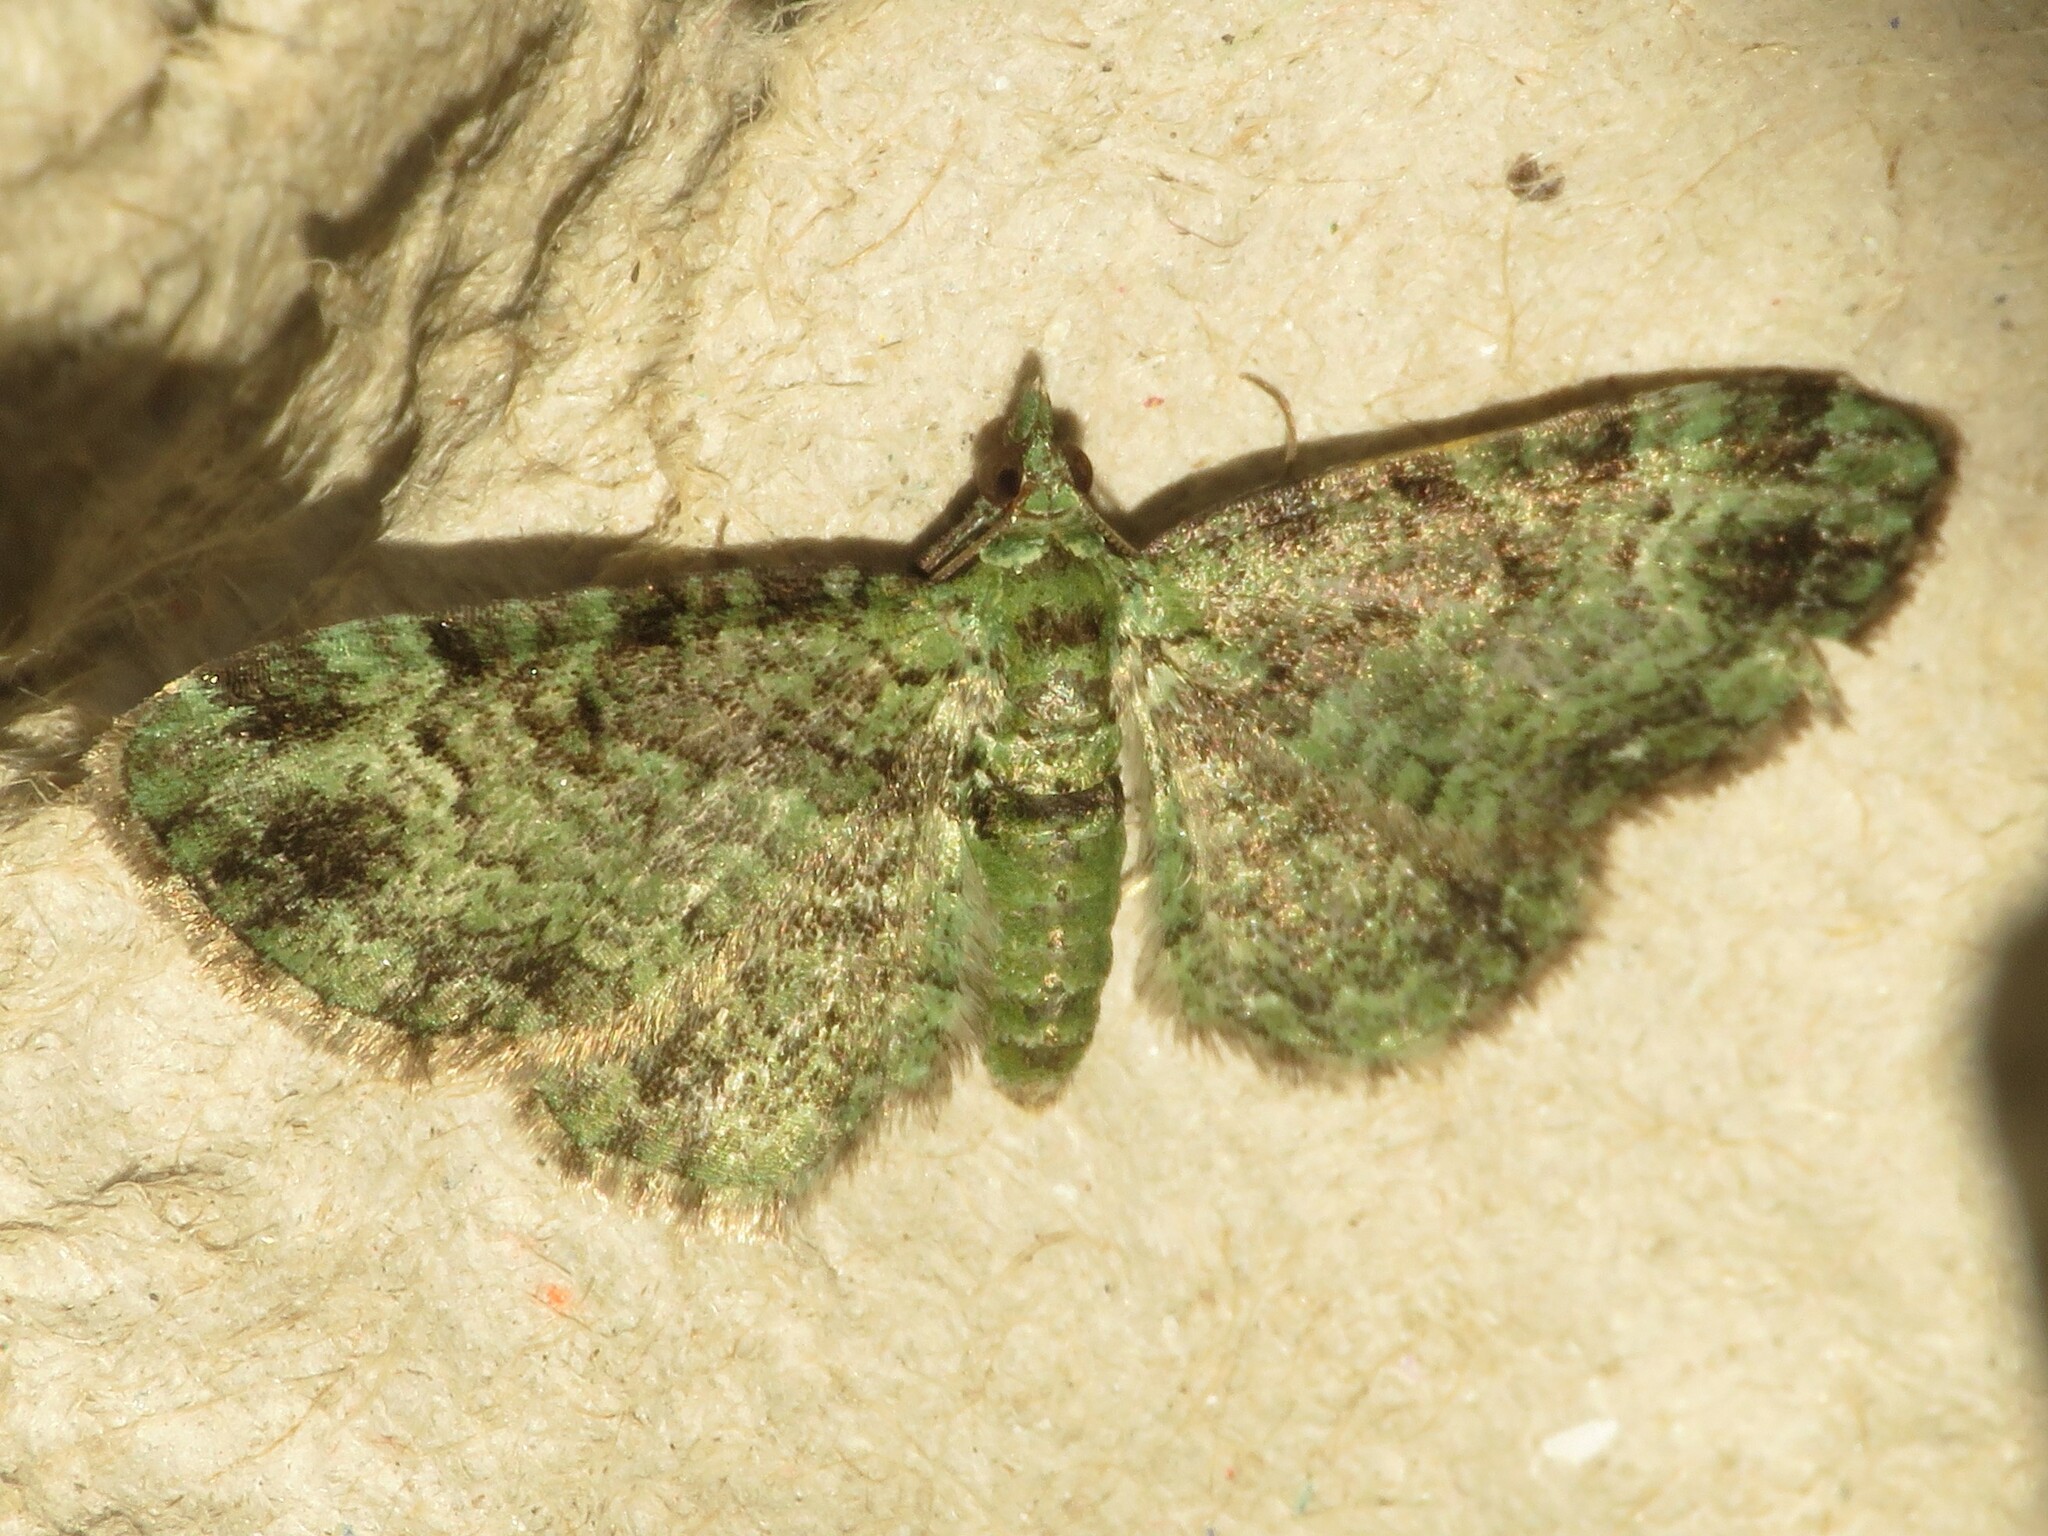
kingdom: Animalia
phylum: Arthropoda
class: Insecta
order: Lepidoptera
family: Geometridae
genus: Pasiphila
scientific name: Pasiphila rectangulata
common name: Green pug
